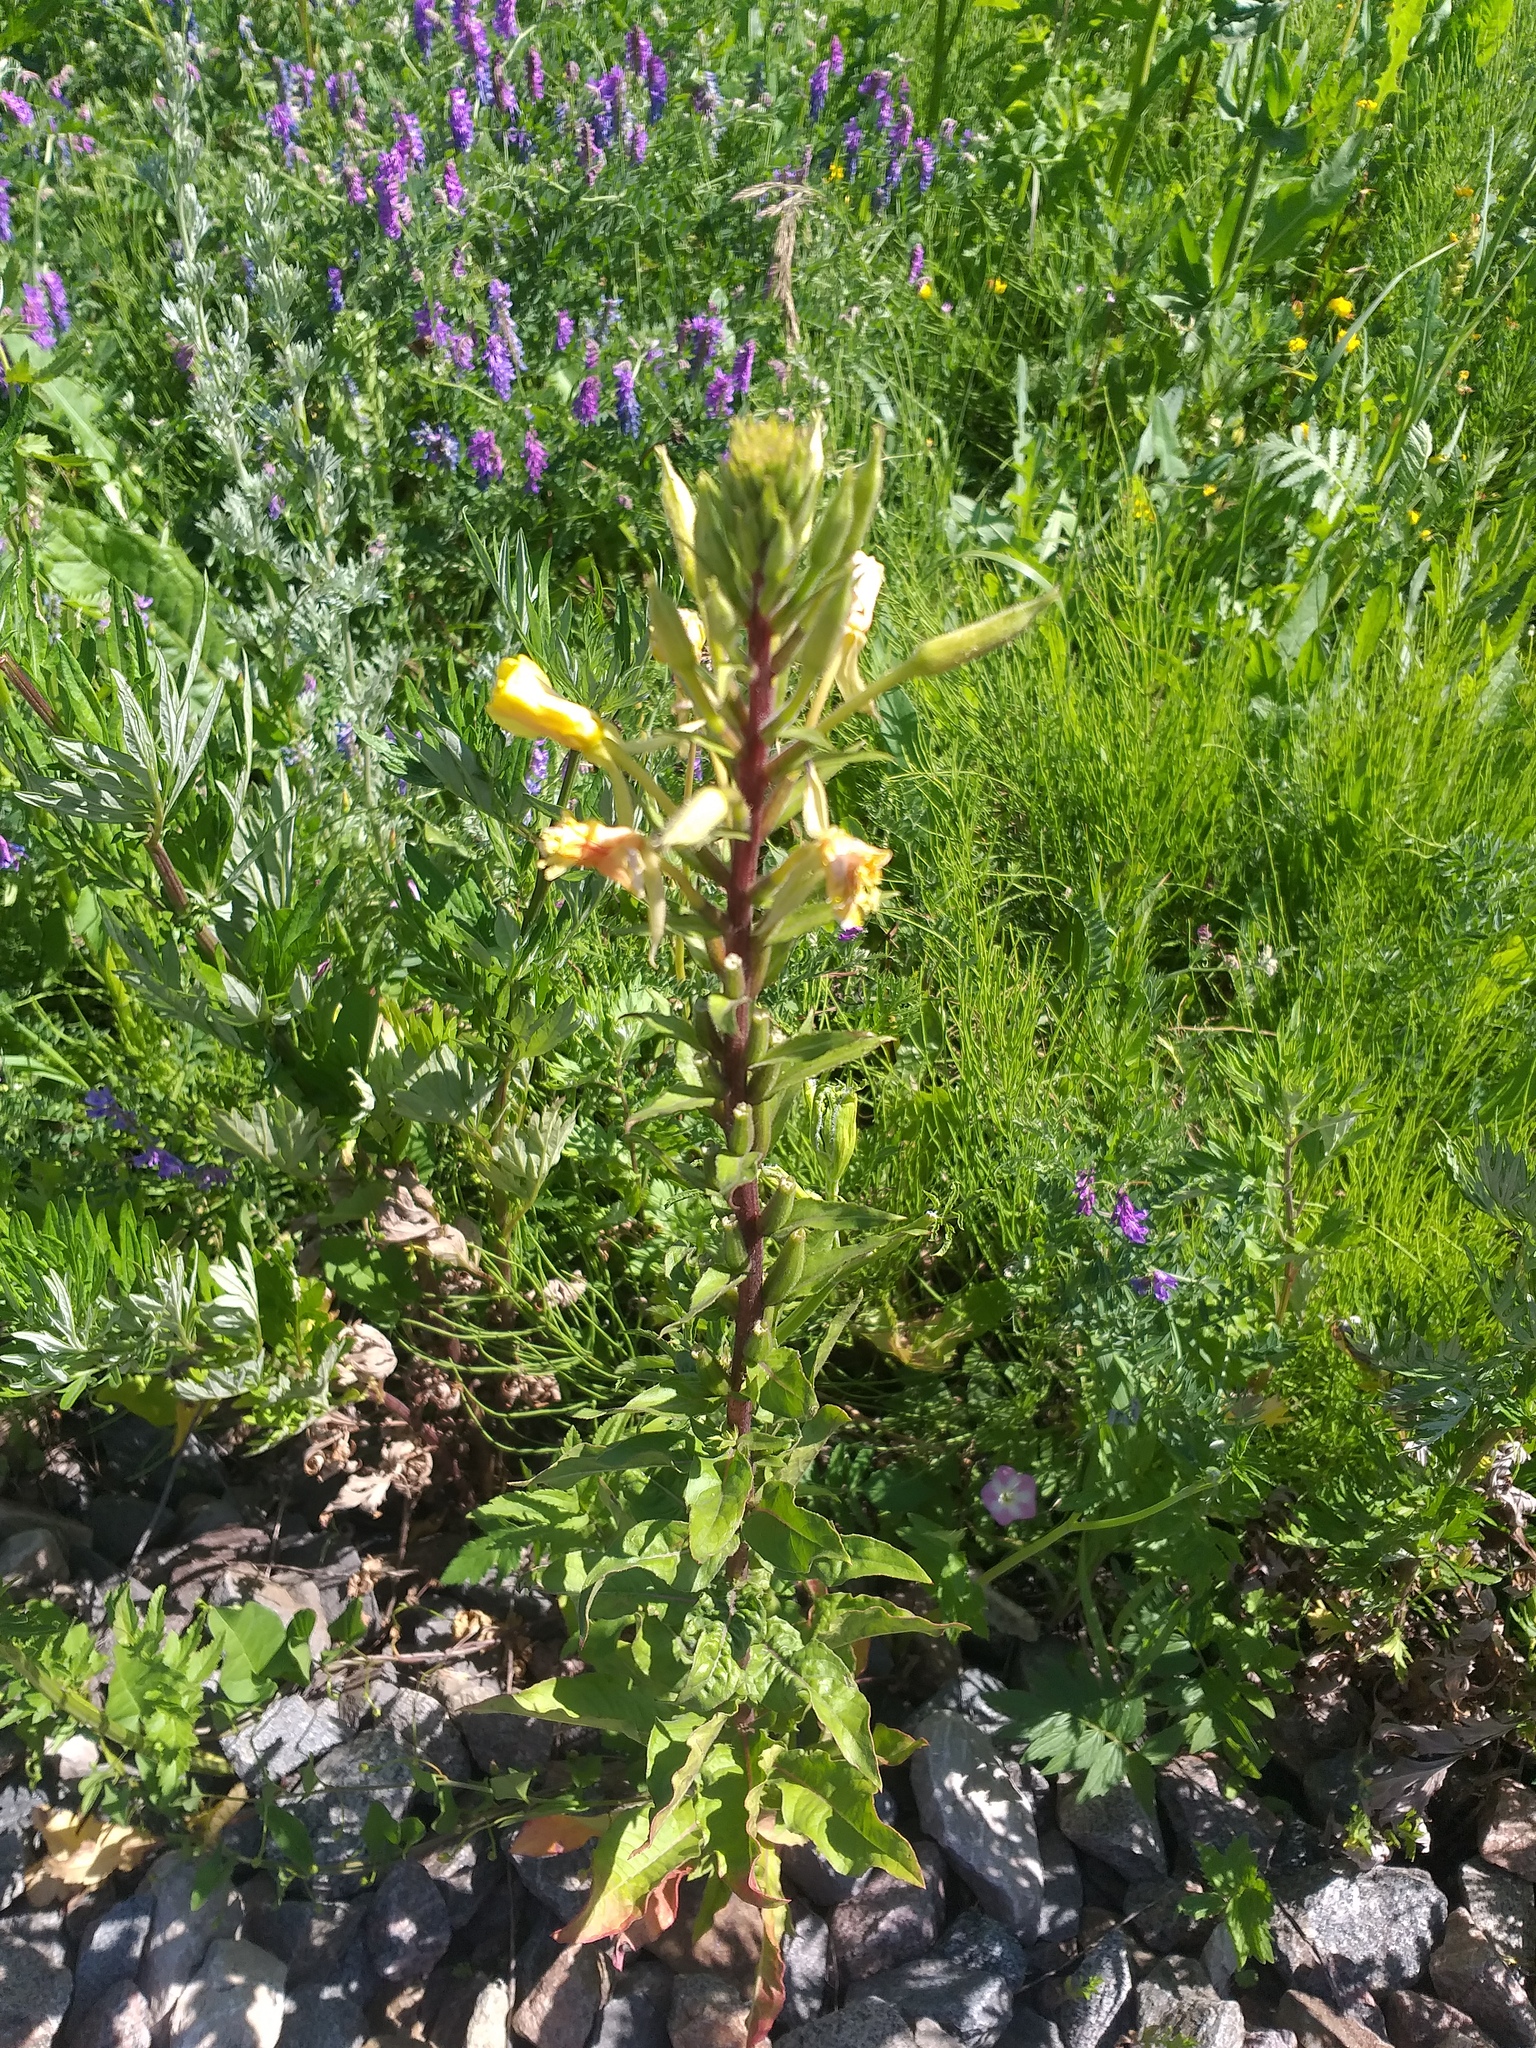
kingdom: Plantae
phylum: Tracheophyta
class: Magnoliopsida
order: Myrtales
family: Onagraceae
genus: Oenothera
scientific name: Oenothera rubricaulis
